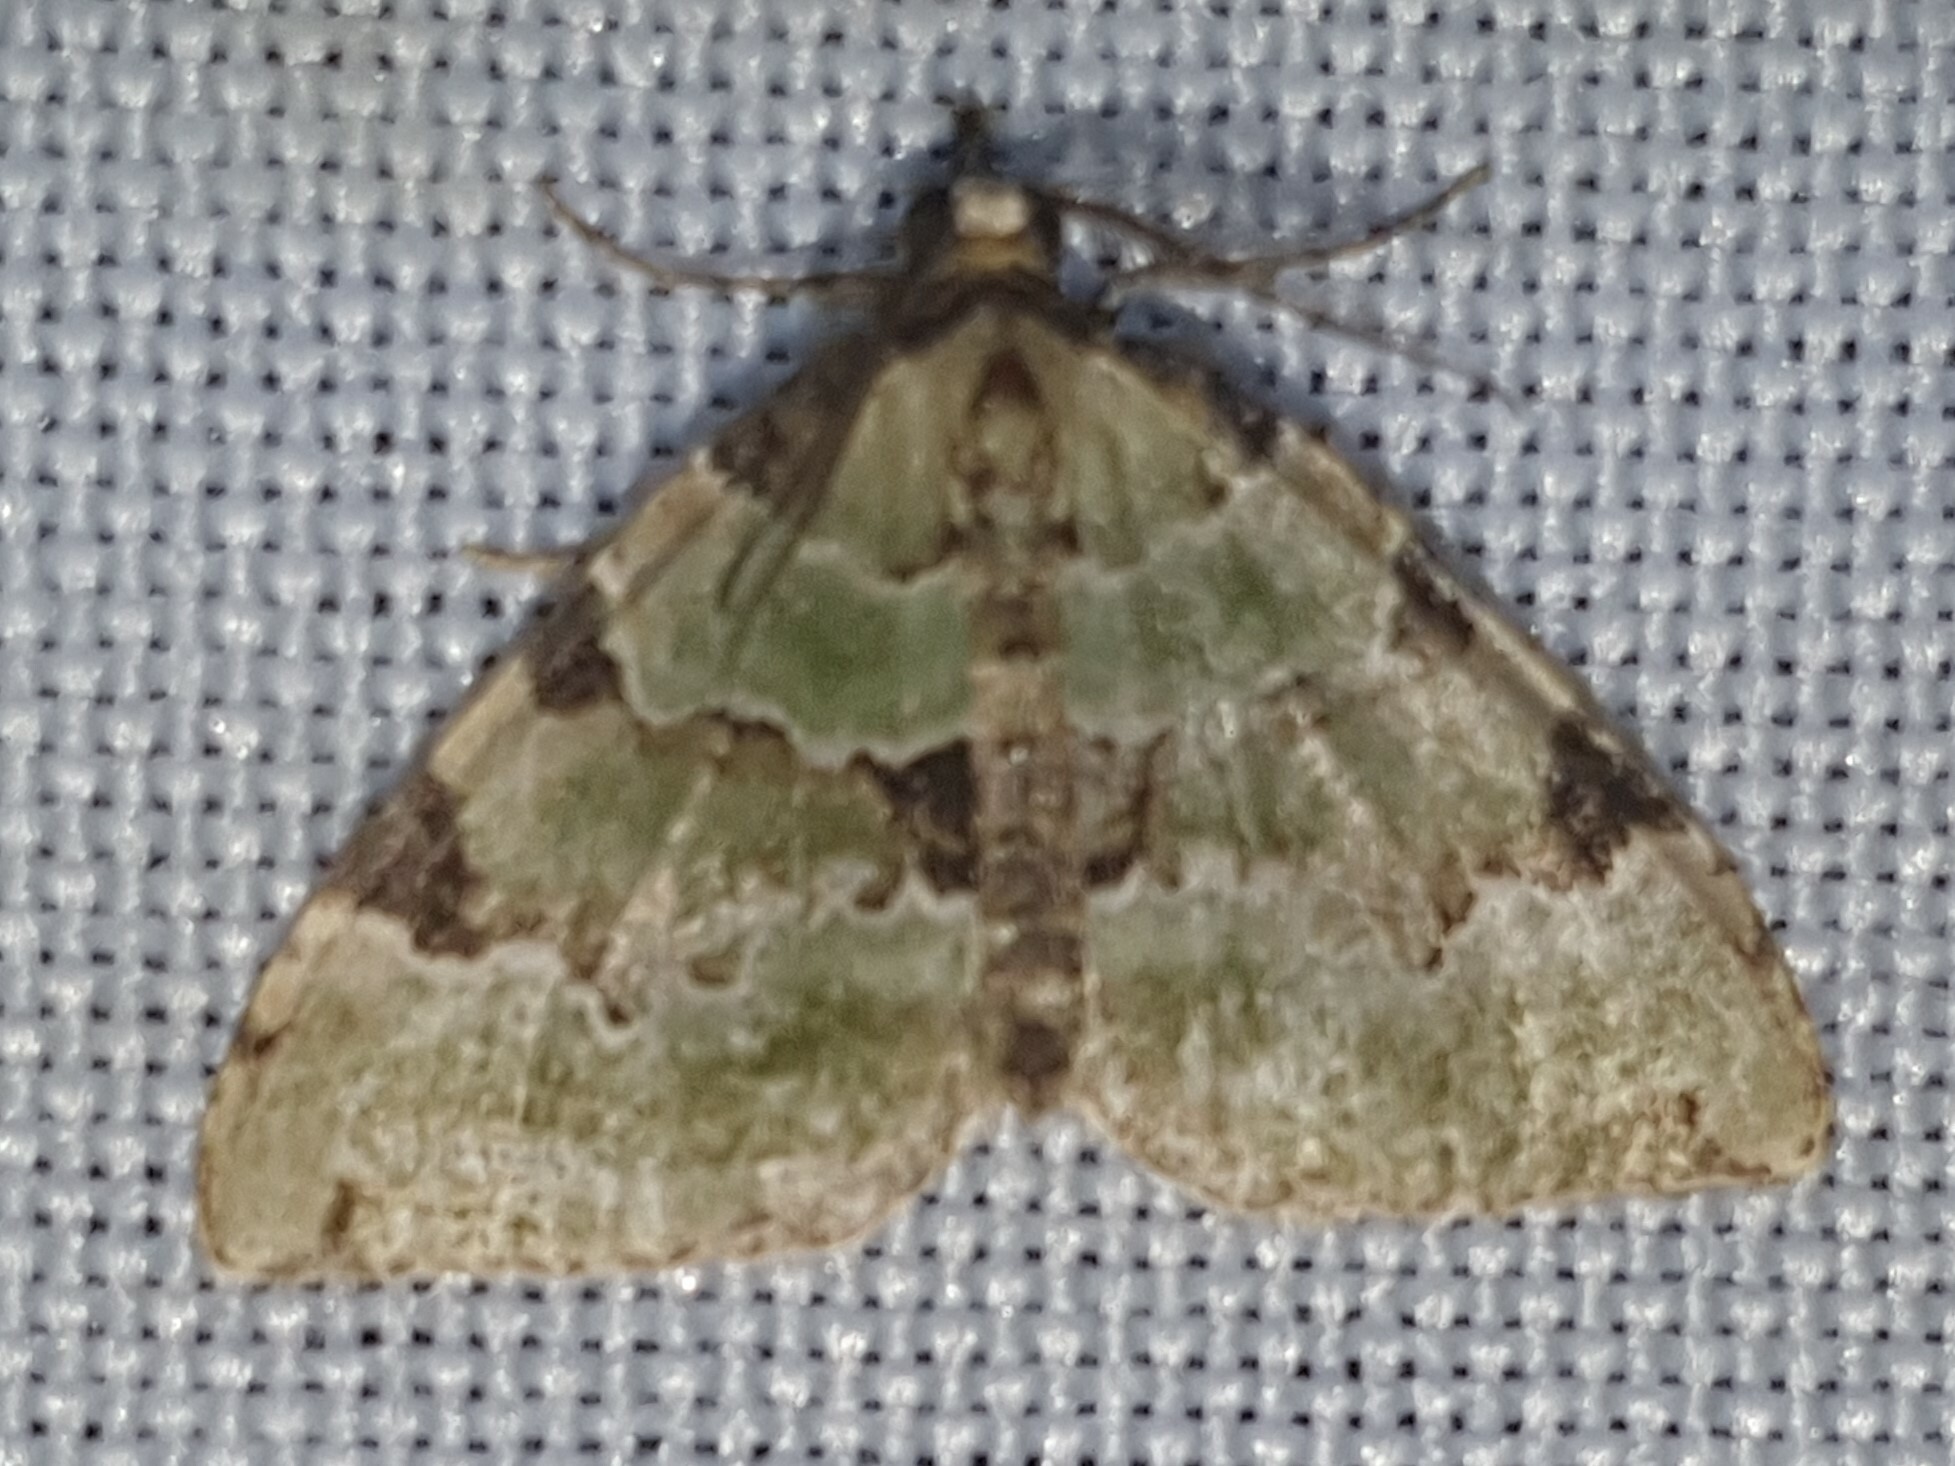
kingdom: Animalia
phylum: Arthropoda
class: Insecta
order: Lepidoptera
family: Geometridae
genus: Colostygia
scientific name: Colostygia pectinataria
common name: Green carpet
